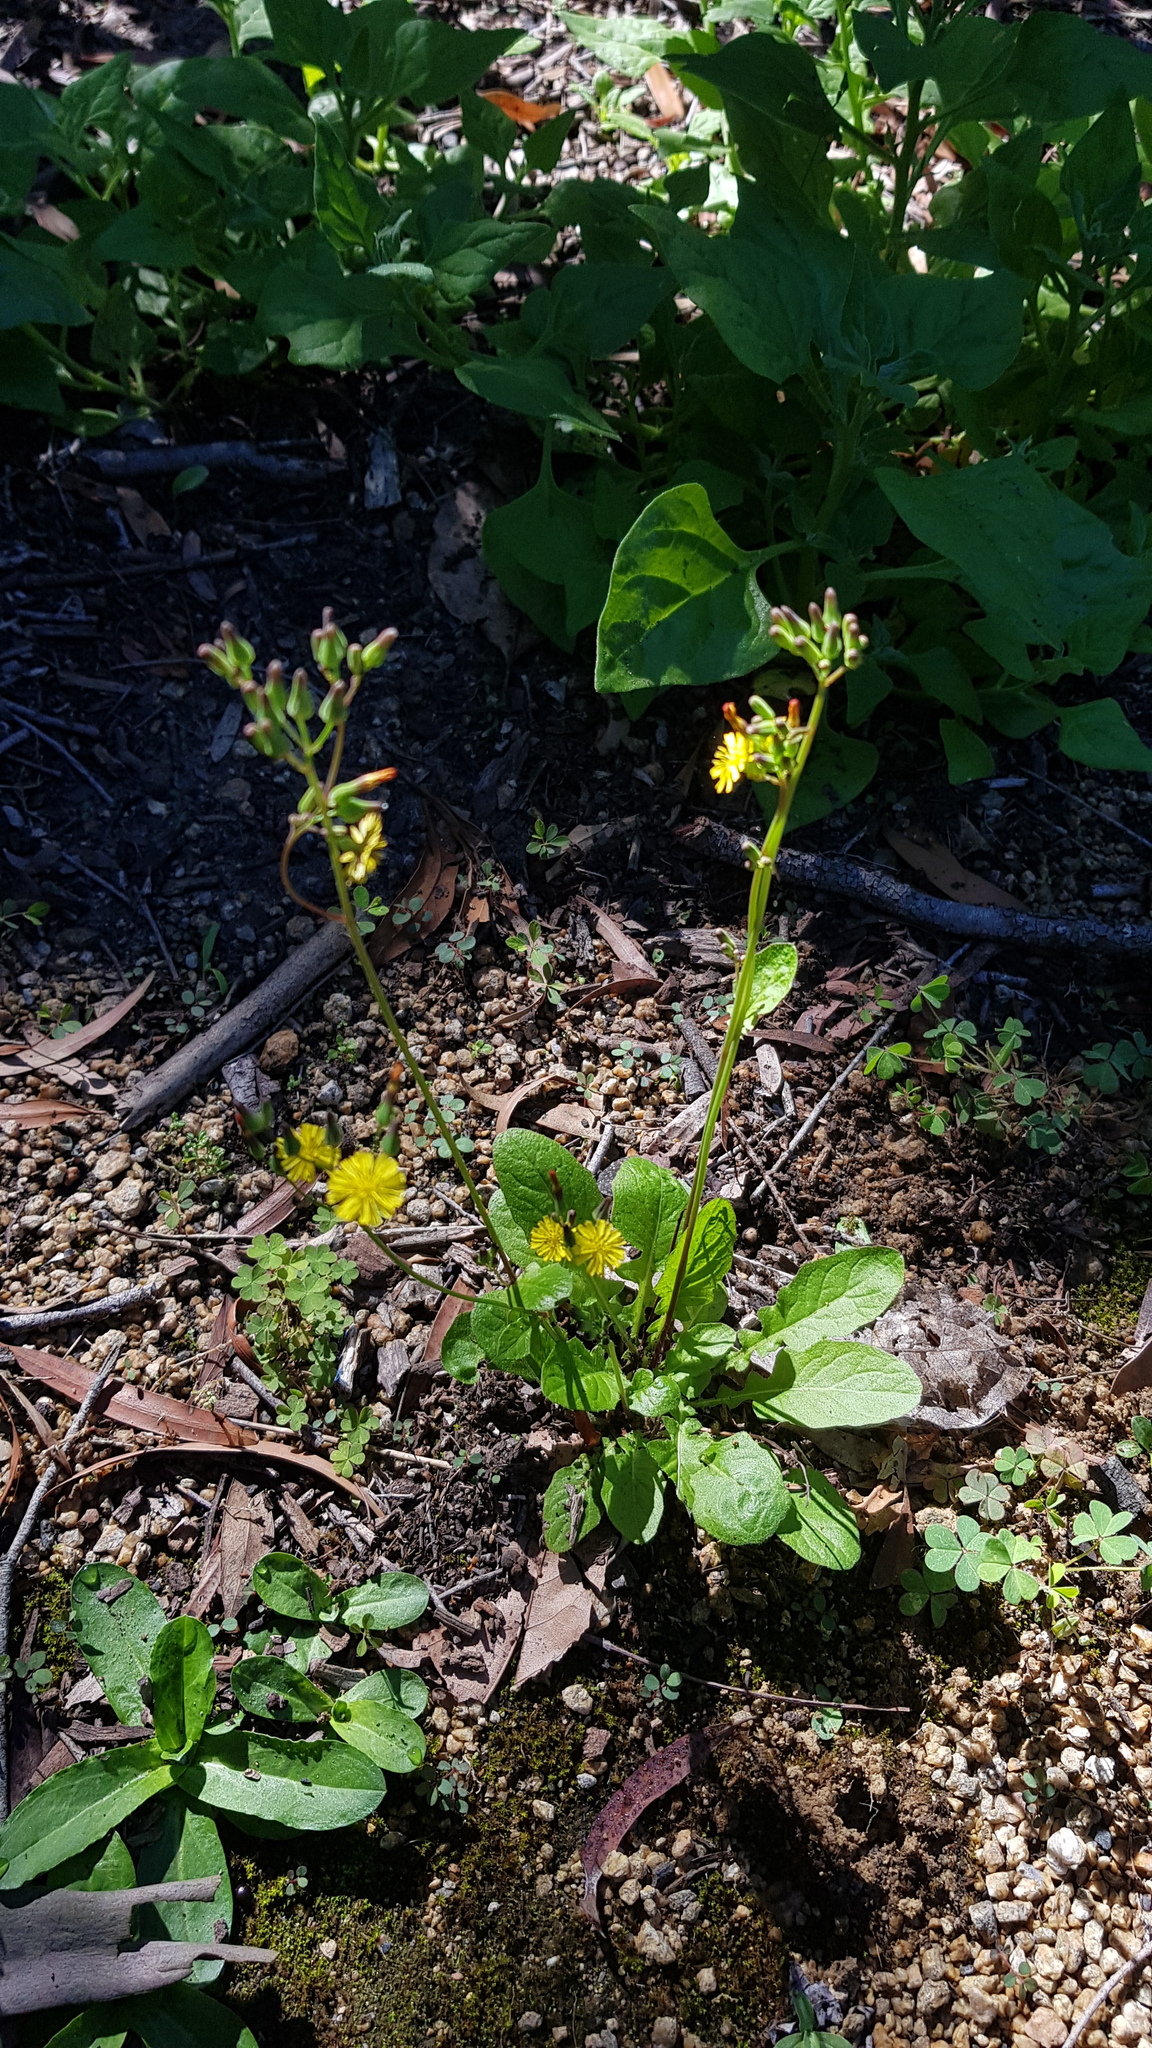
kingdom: Plantae
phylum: Tracheophyta
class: Magnoliopsida
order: Asterales
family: Asteraceae
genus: Youngia
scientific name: Youngia japonica
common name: Oriental false hawksbeard
